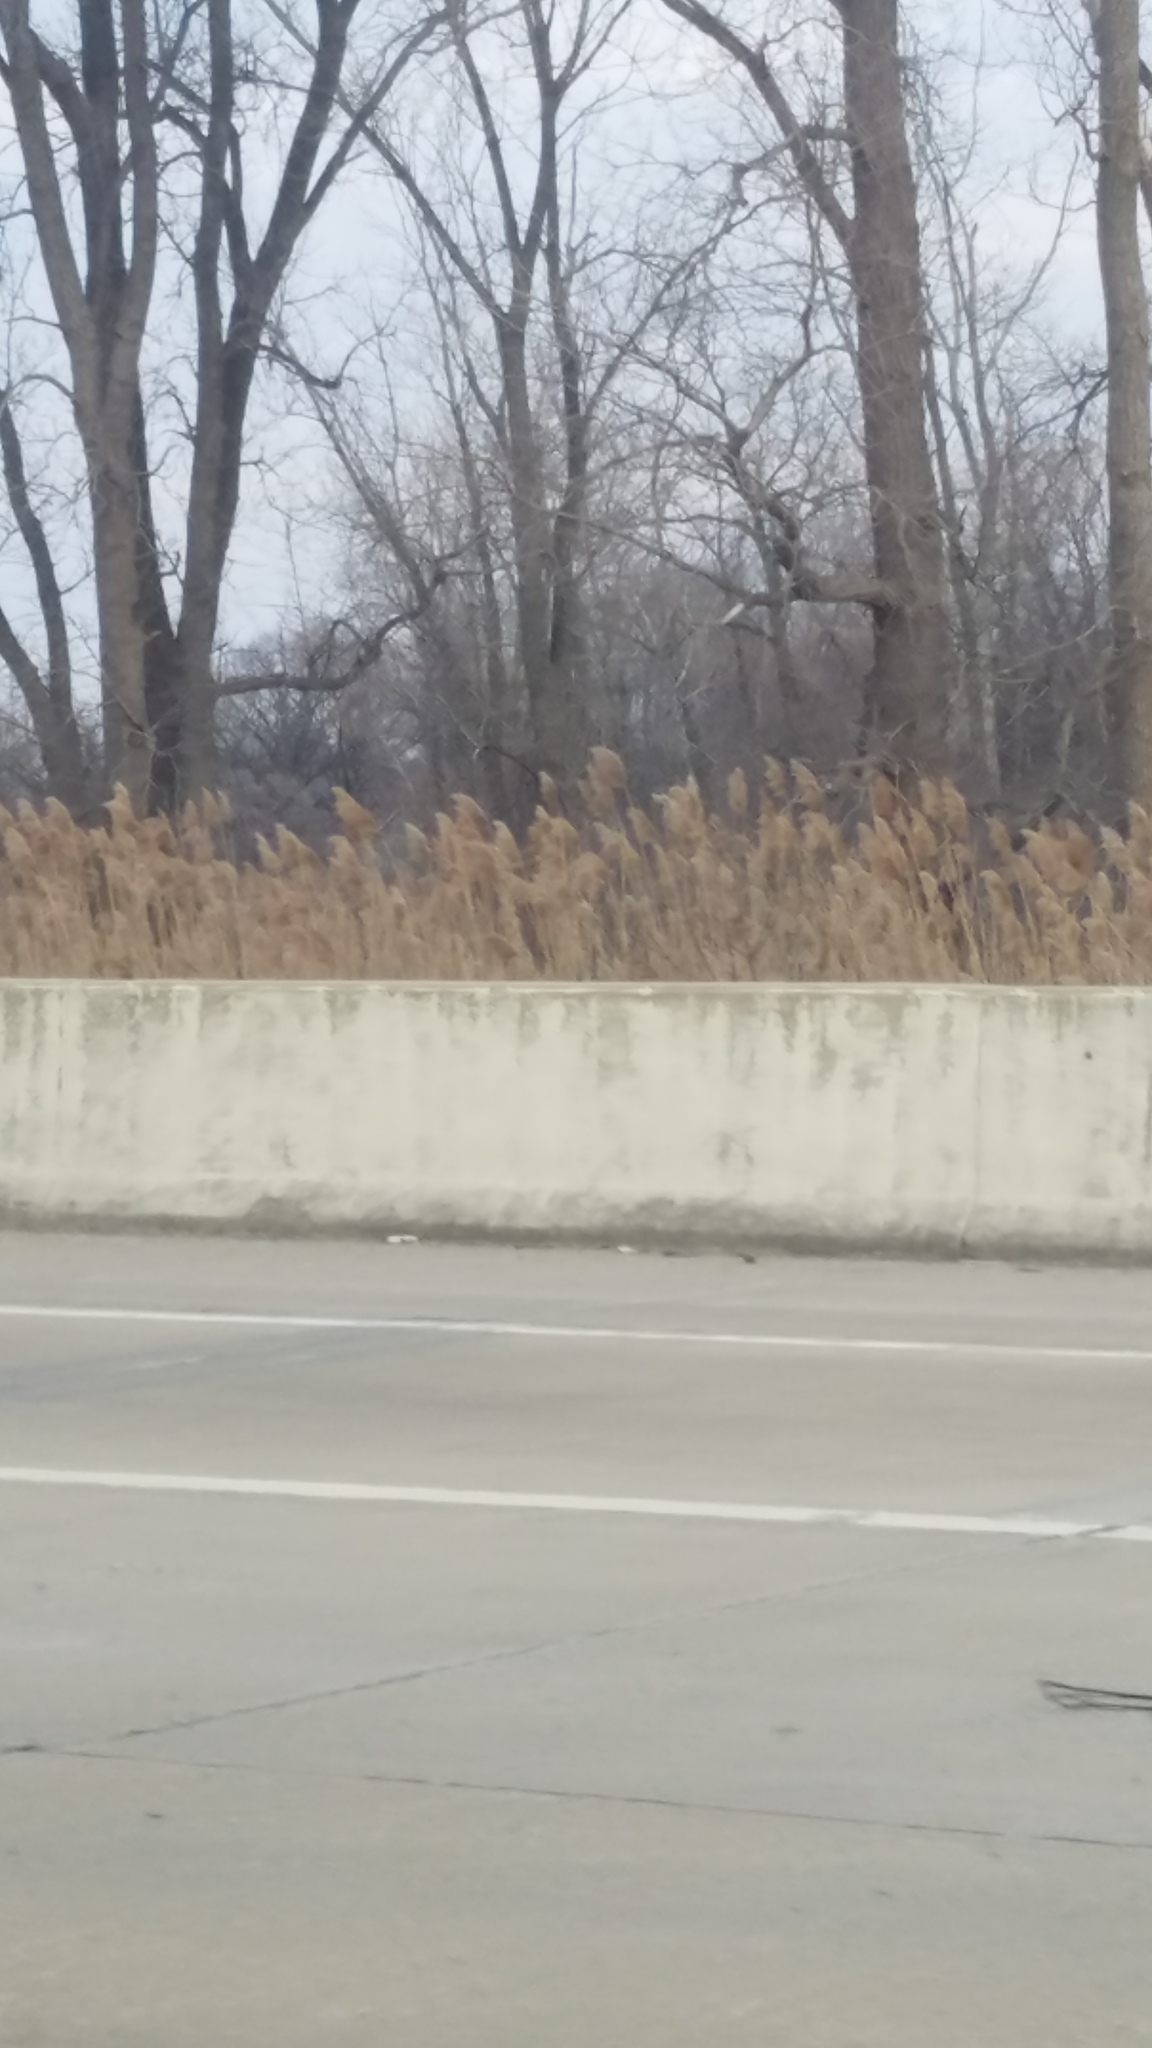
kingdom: Plantae
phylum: Tracheophyta
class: Liliopsida
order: Poales
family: Poaceae
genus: Phragmites
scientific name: Phragmites australis
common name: Common reed
